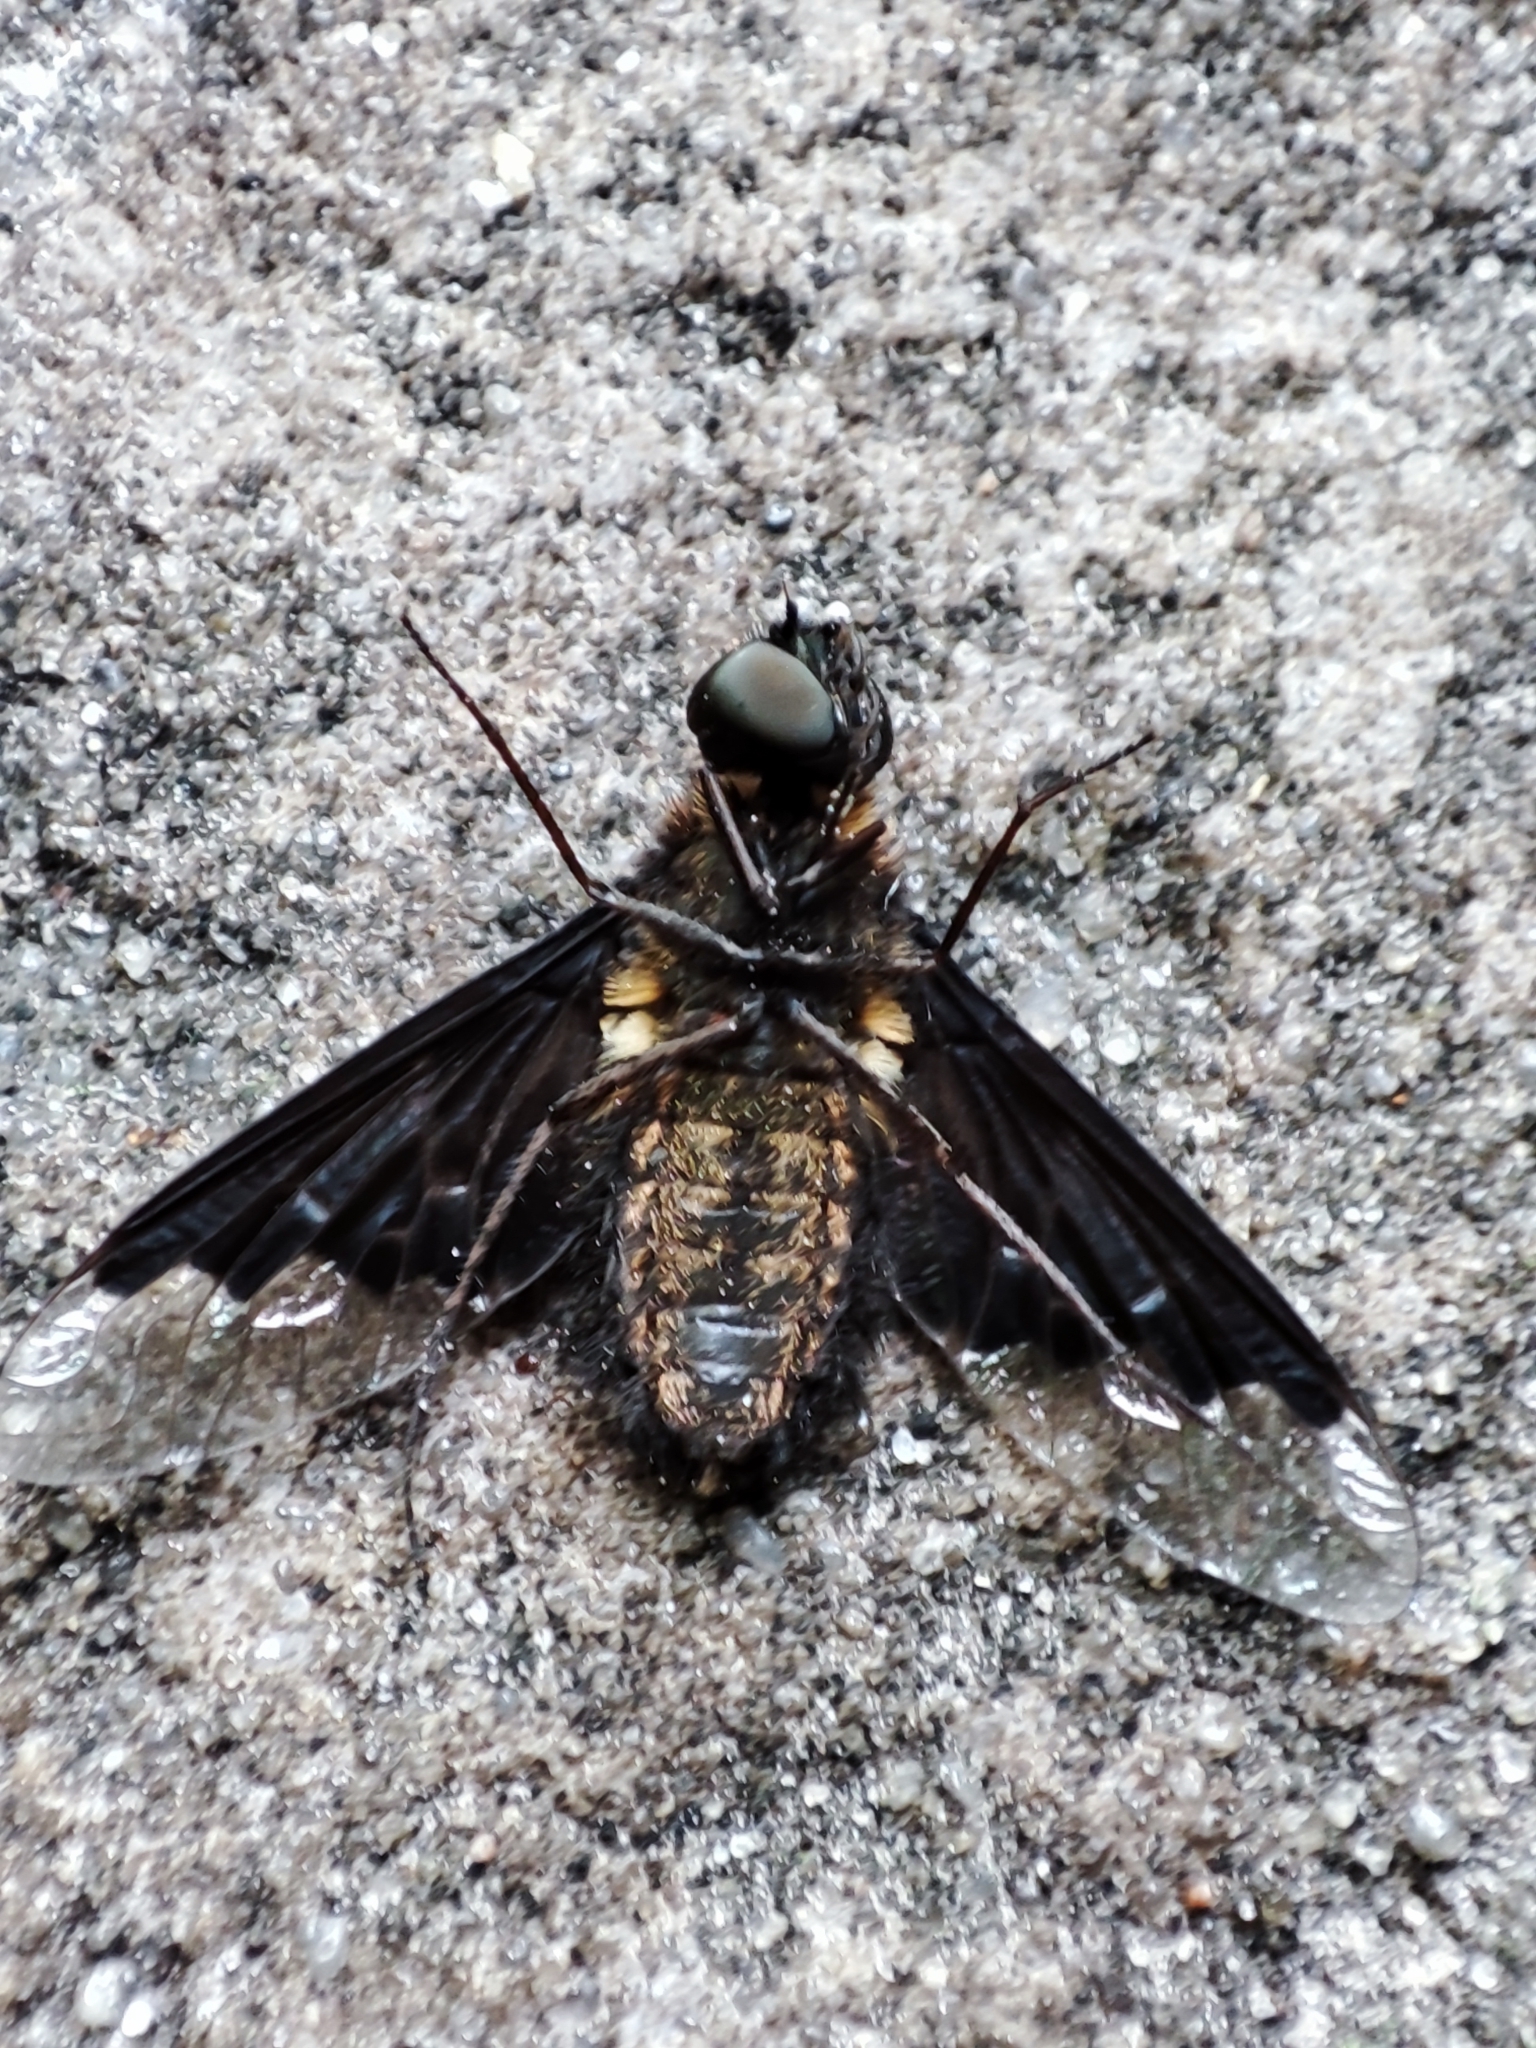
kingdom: Animalia
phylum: Arthropoda
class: Insecta
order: Diptera
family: Bombyliidae
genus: Hemipenthes
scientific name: Hemipenthes morio
